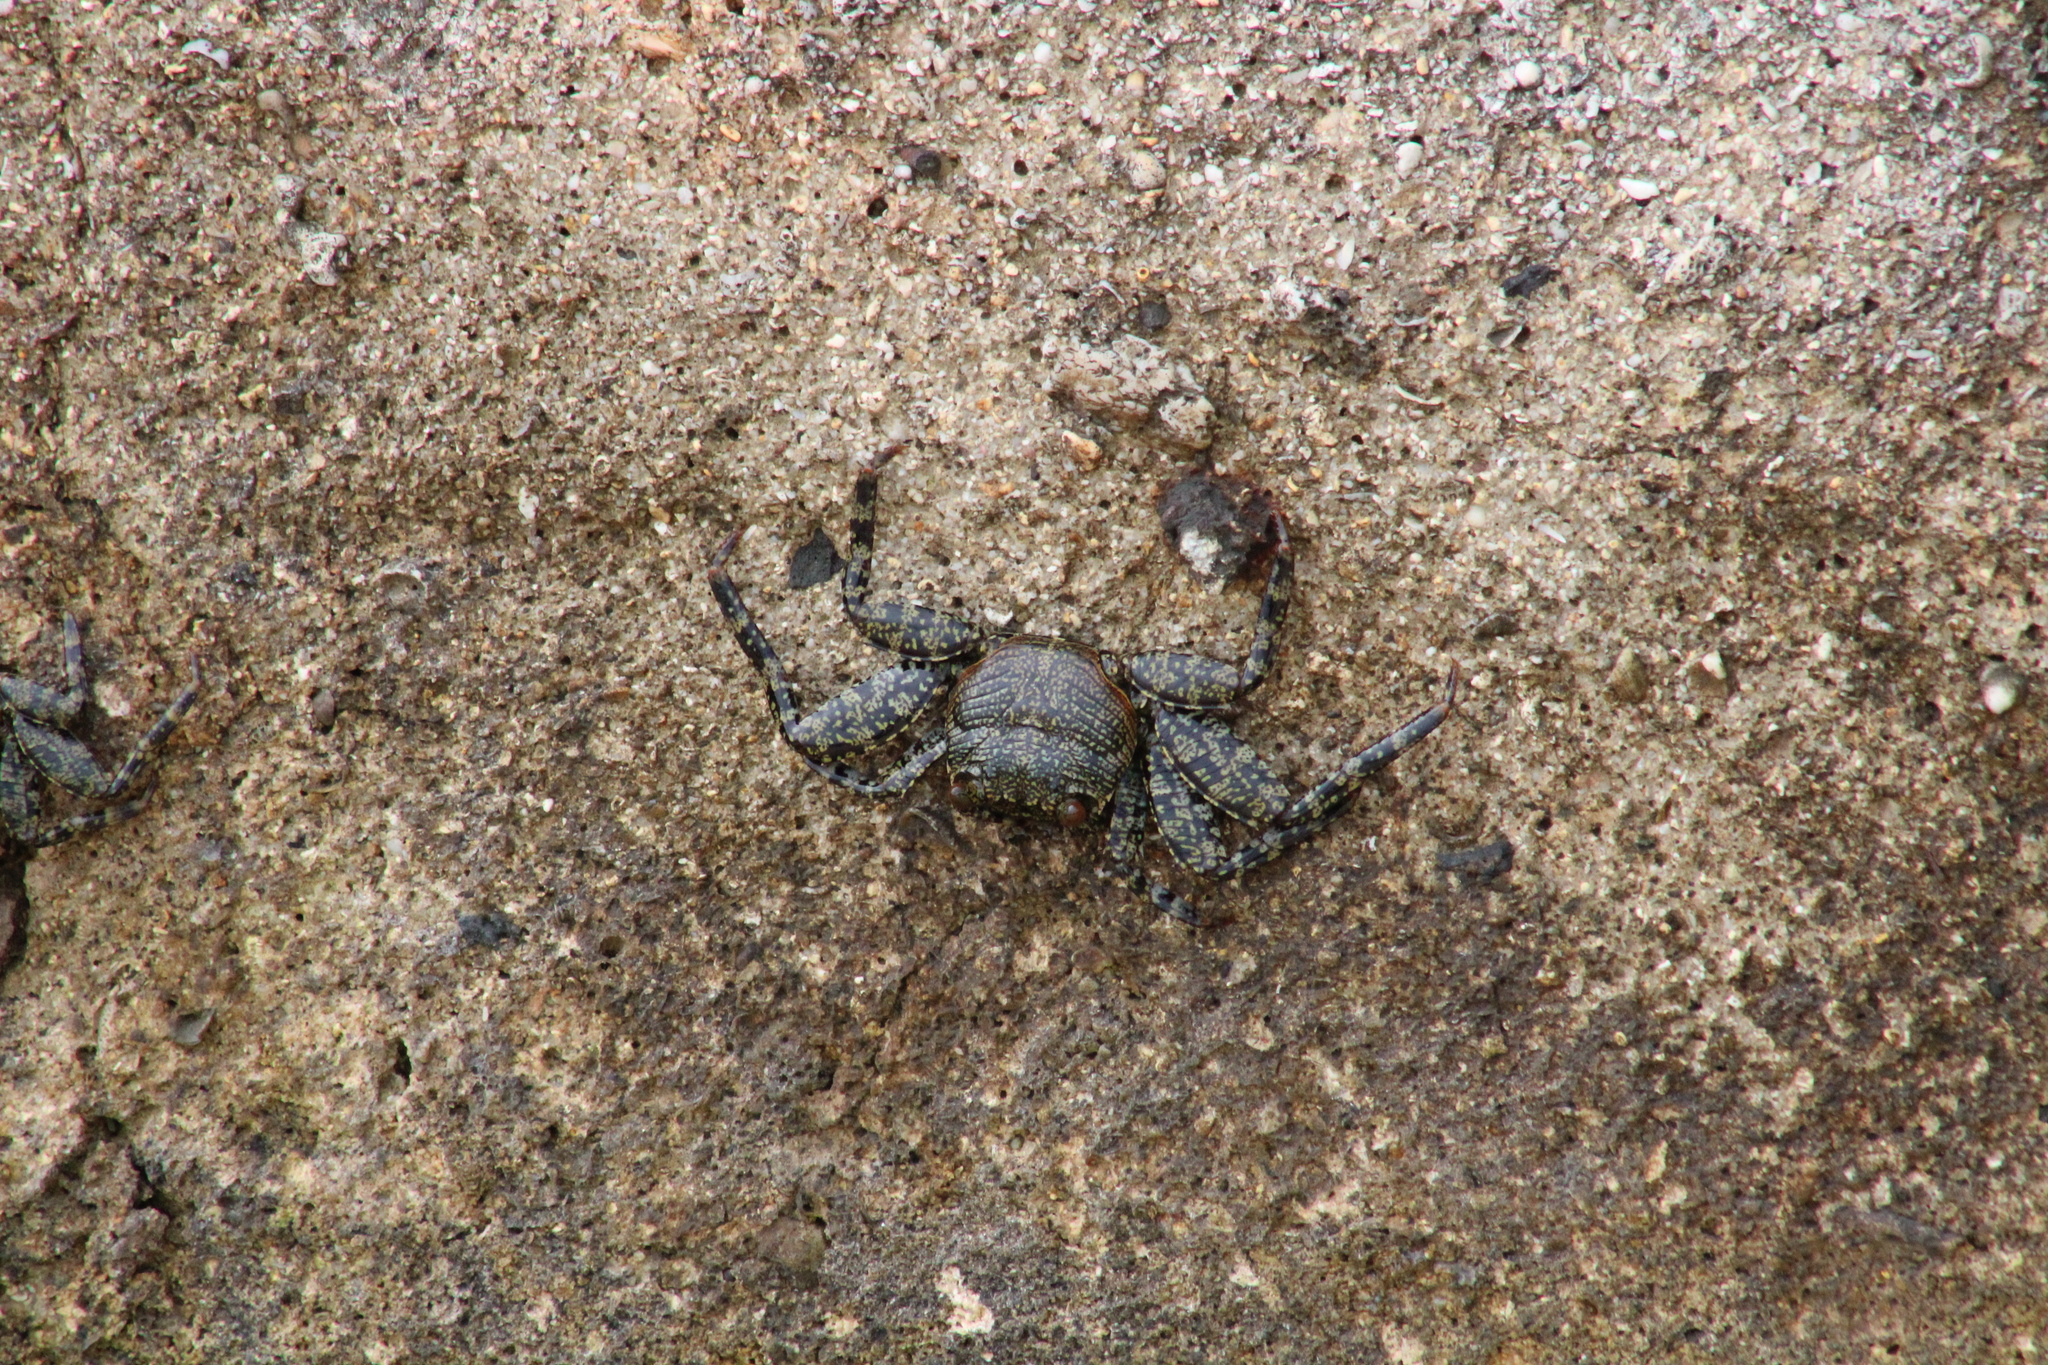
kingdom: Animalia
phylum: Arthropoda
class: Malacostraca
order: Decapoda
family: Grapsidae
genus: Grapsus
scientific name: Grapsus grapsus
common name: Sally lightfoot
